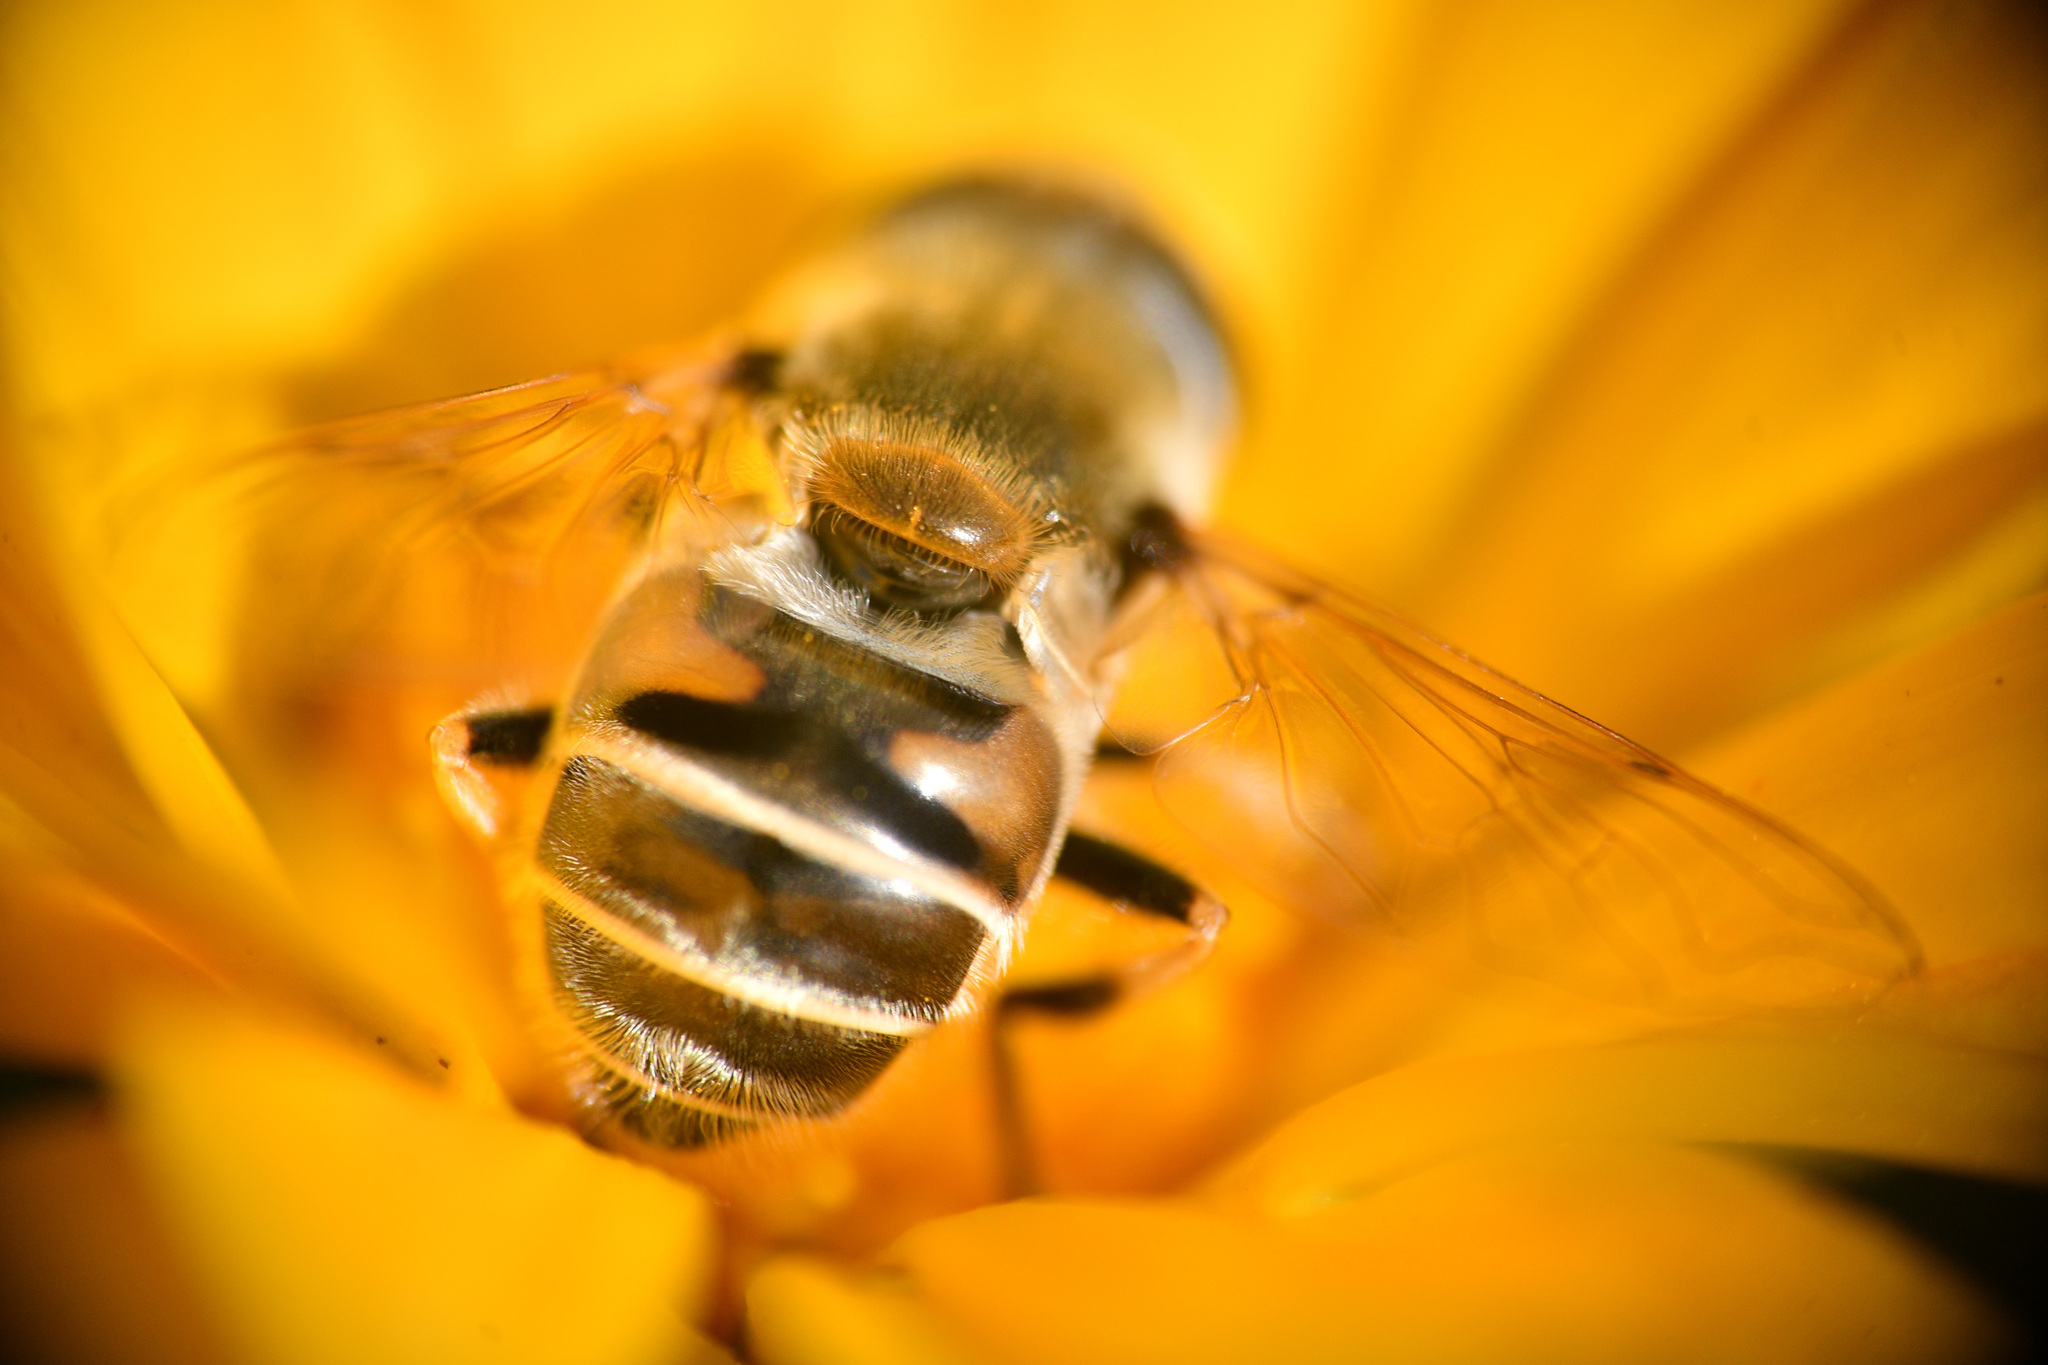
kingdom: Animalia
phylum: Arthropoda
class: Insecta
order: Diptera
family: Syrphidae
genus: Eristalis
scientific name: Eristalis stipator
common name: Yellow-shouldered drone fly
